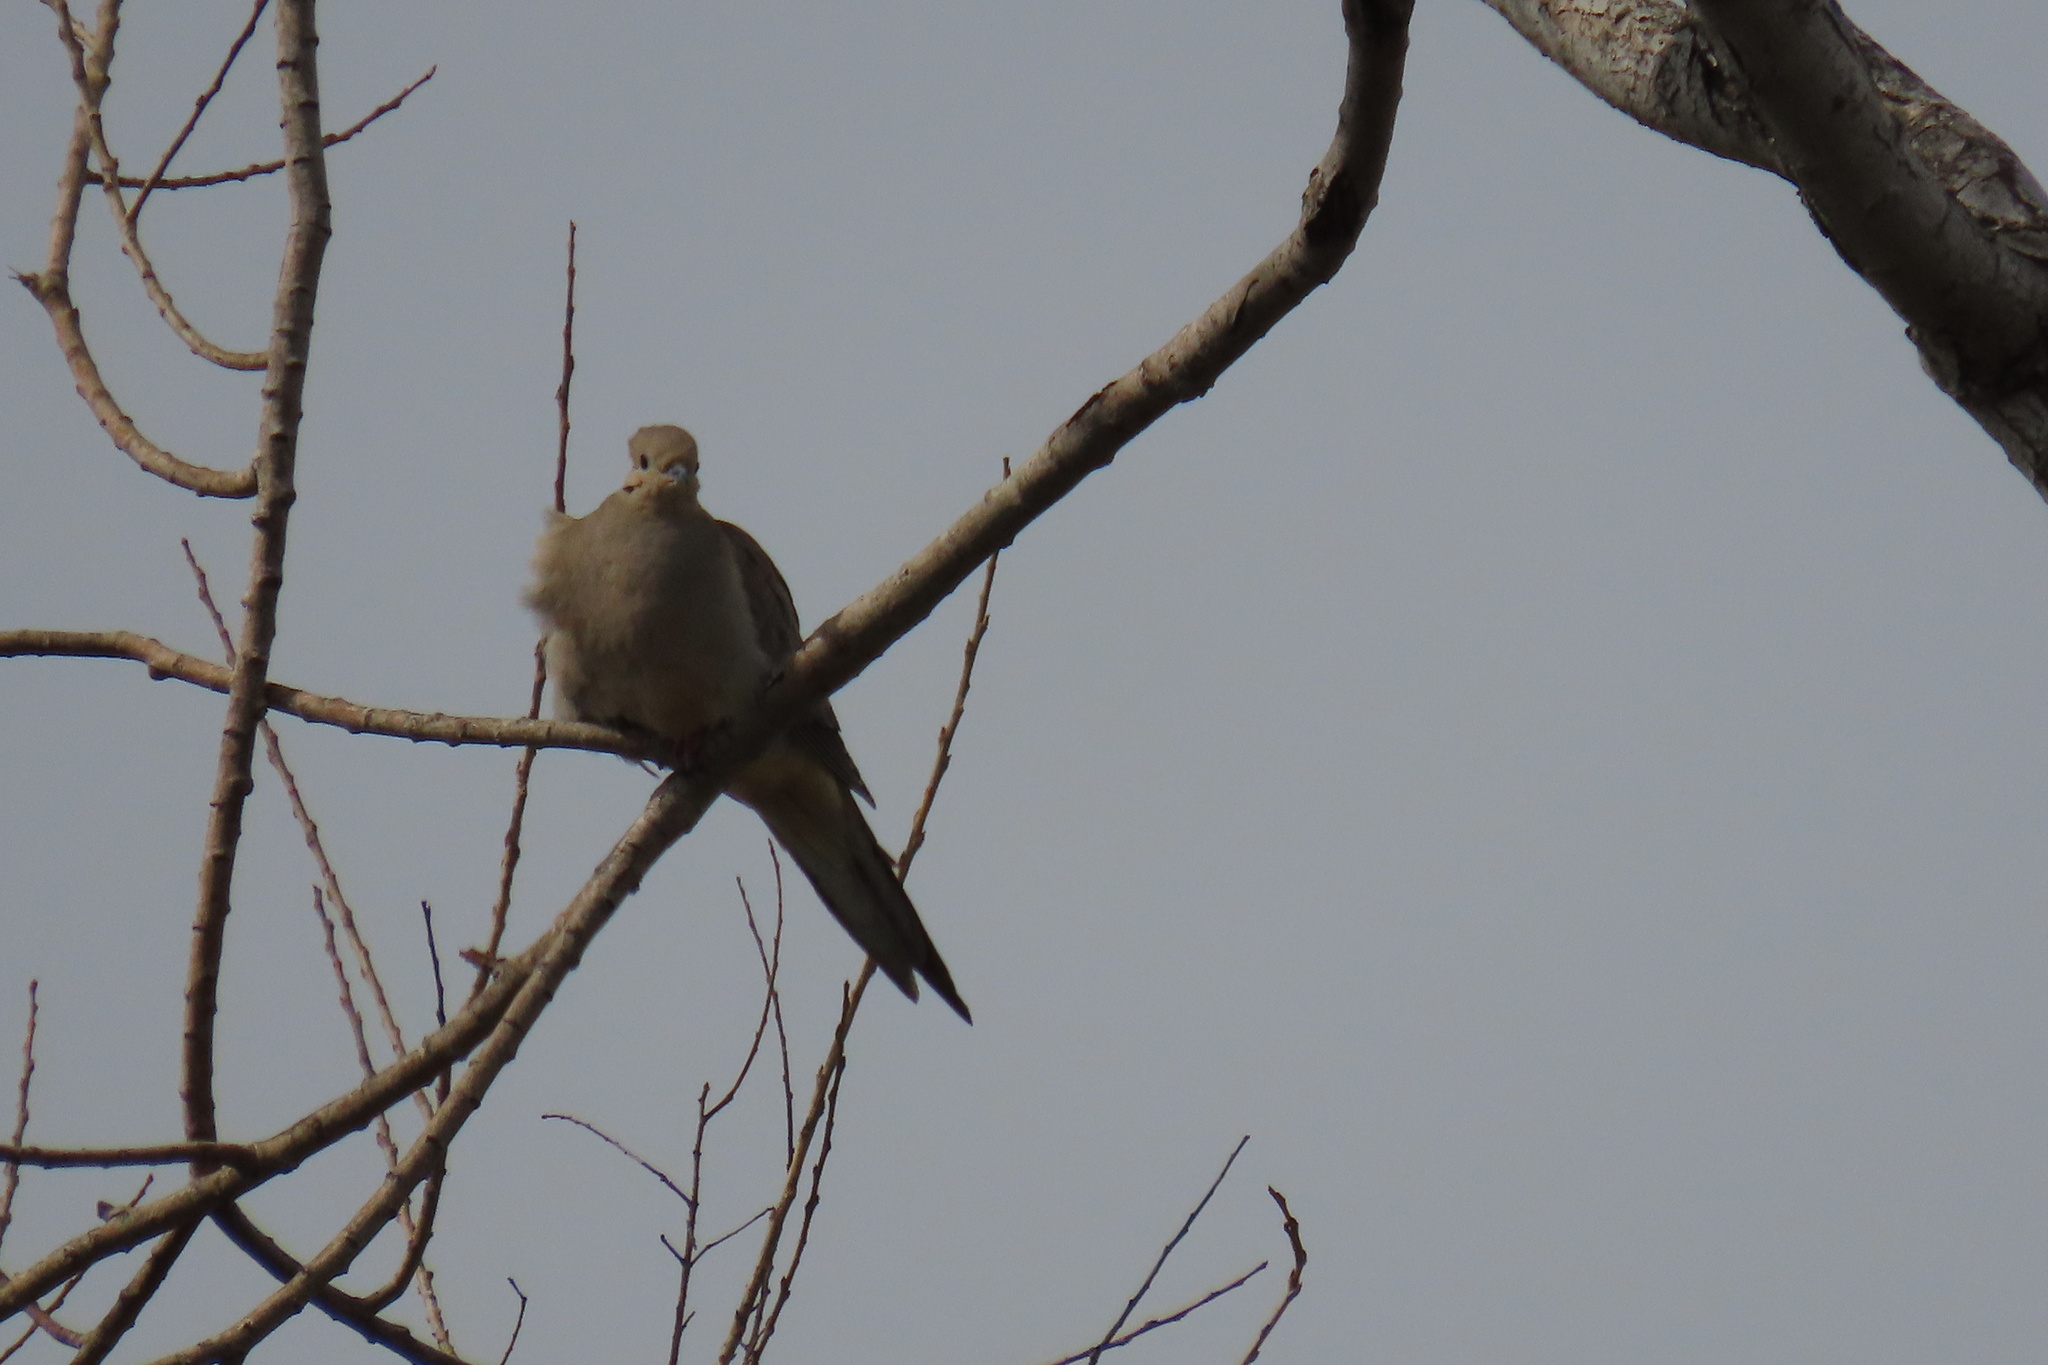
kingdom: Animalia
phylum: Chordata
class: Aves
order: Columbiformes
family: Columbidae
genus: Zenaida
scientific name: Zenaida macroura
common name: Mourning dove
